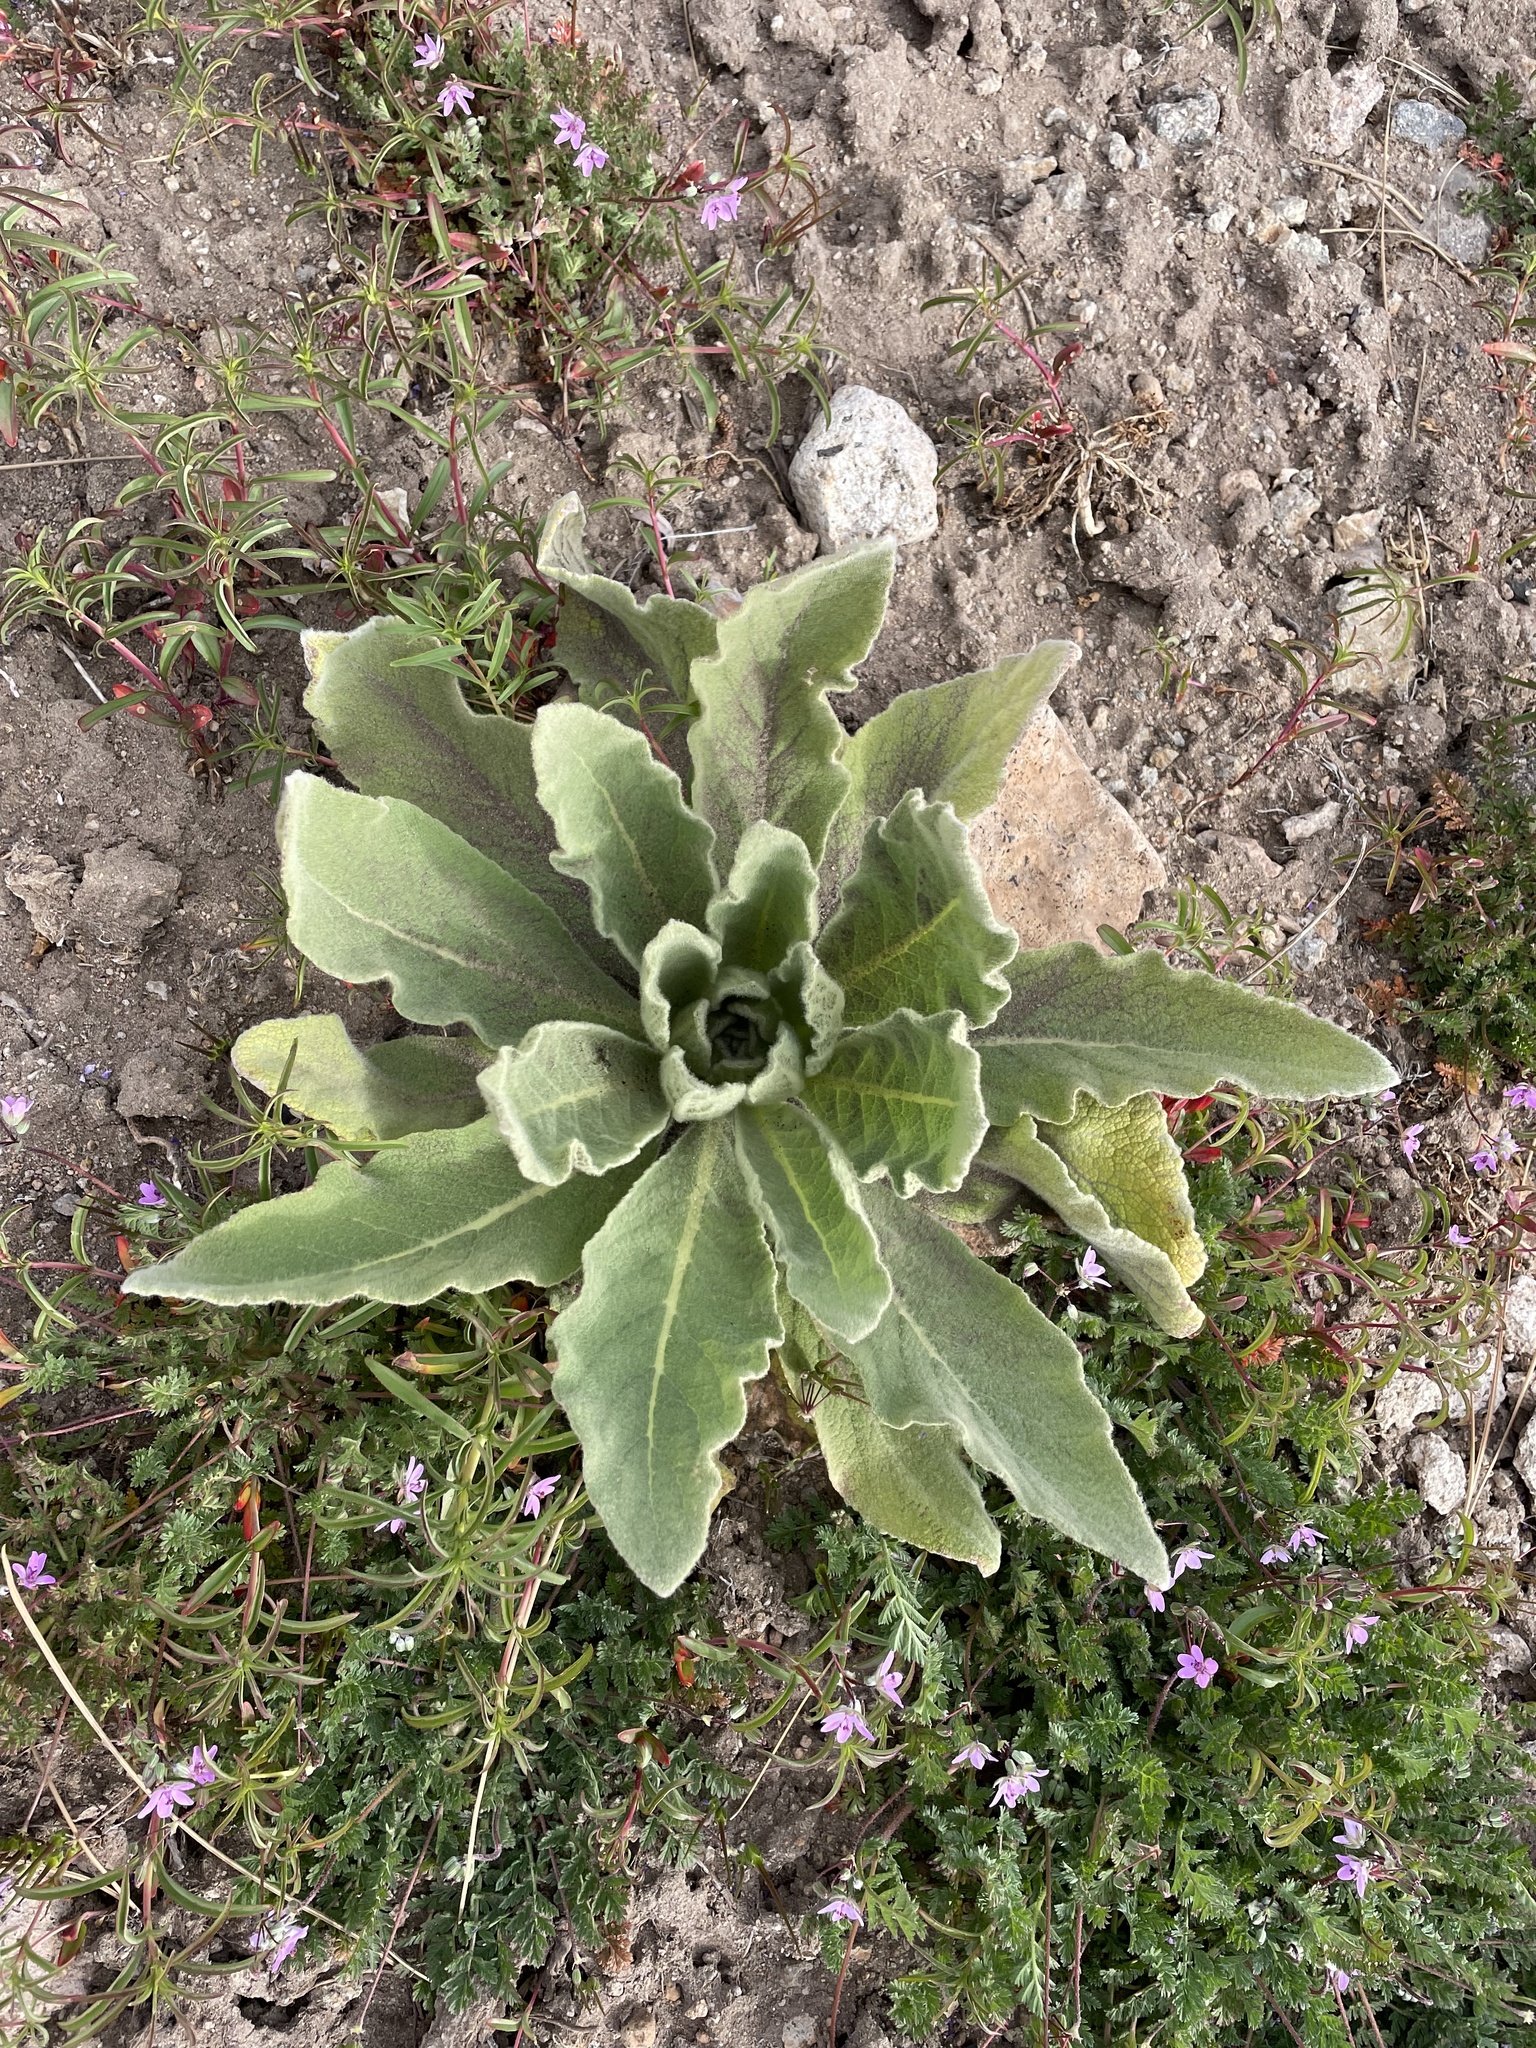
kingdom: Plantae
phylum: Tracheophyta
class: Magnoliopsida
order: Lamiales
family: Scrophulariaceae
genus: Verbascum
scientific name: Verbascum thapsus
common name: Common mullein
